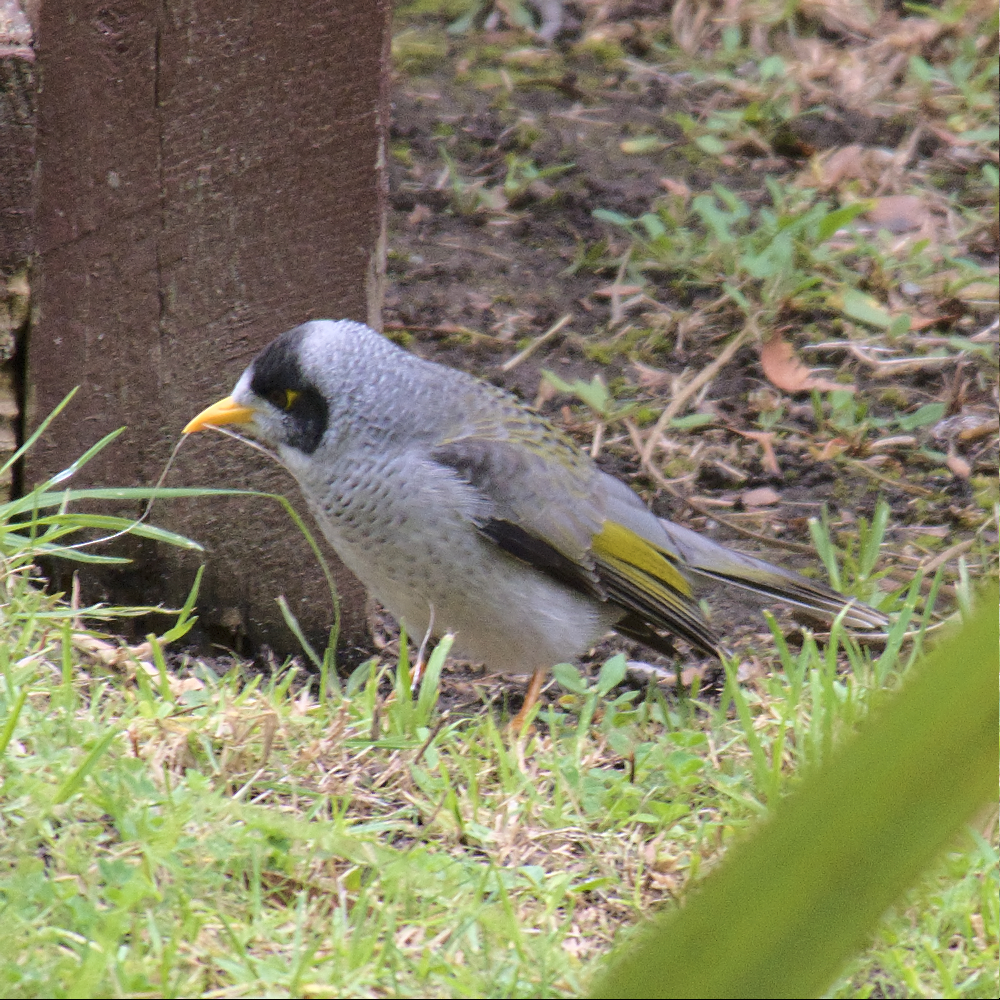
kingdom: Animalia
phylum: Chordata
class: Aves
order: Passeriformes
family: Meliphagidae
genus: Manorina
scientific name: Manorina melanocephala
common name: Noisy miner
